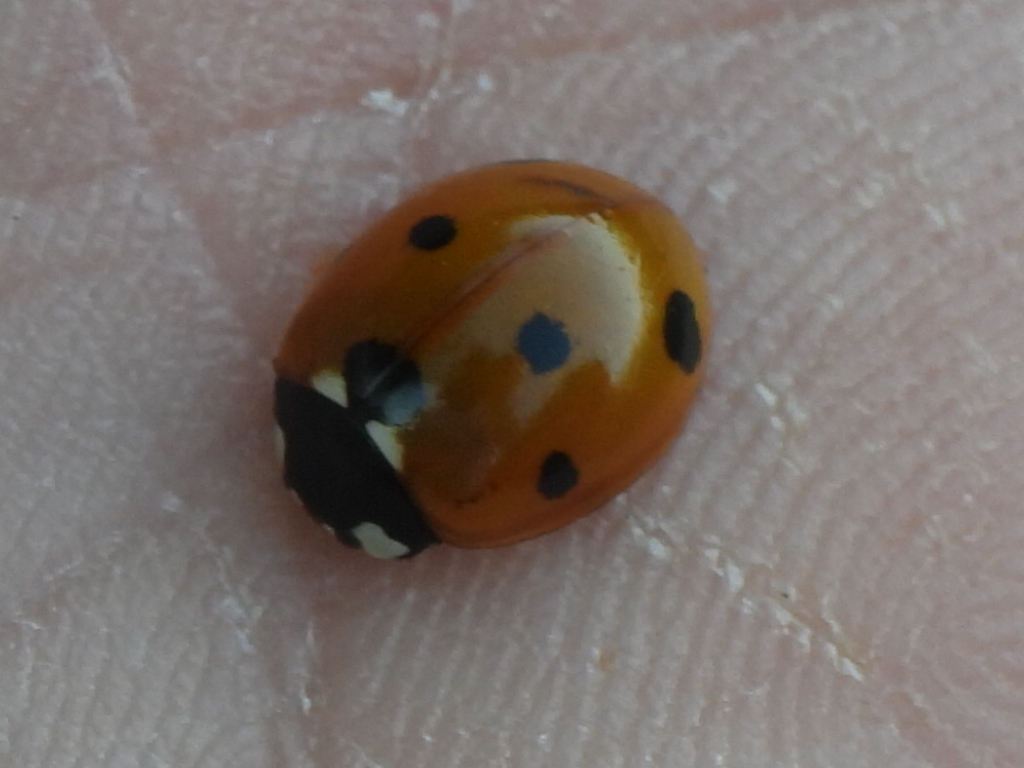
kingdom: Animalia
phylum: Arthropoda
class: Insecta
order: Coleoptera
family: Coccinellidae
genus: Coccinella
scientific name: Coccinella septempunctata
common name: Sevenspotted lady beetle
